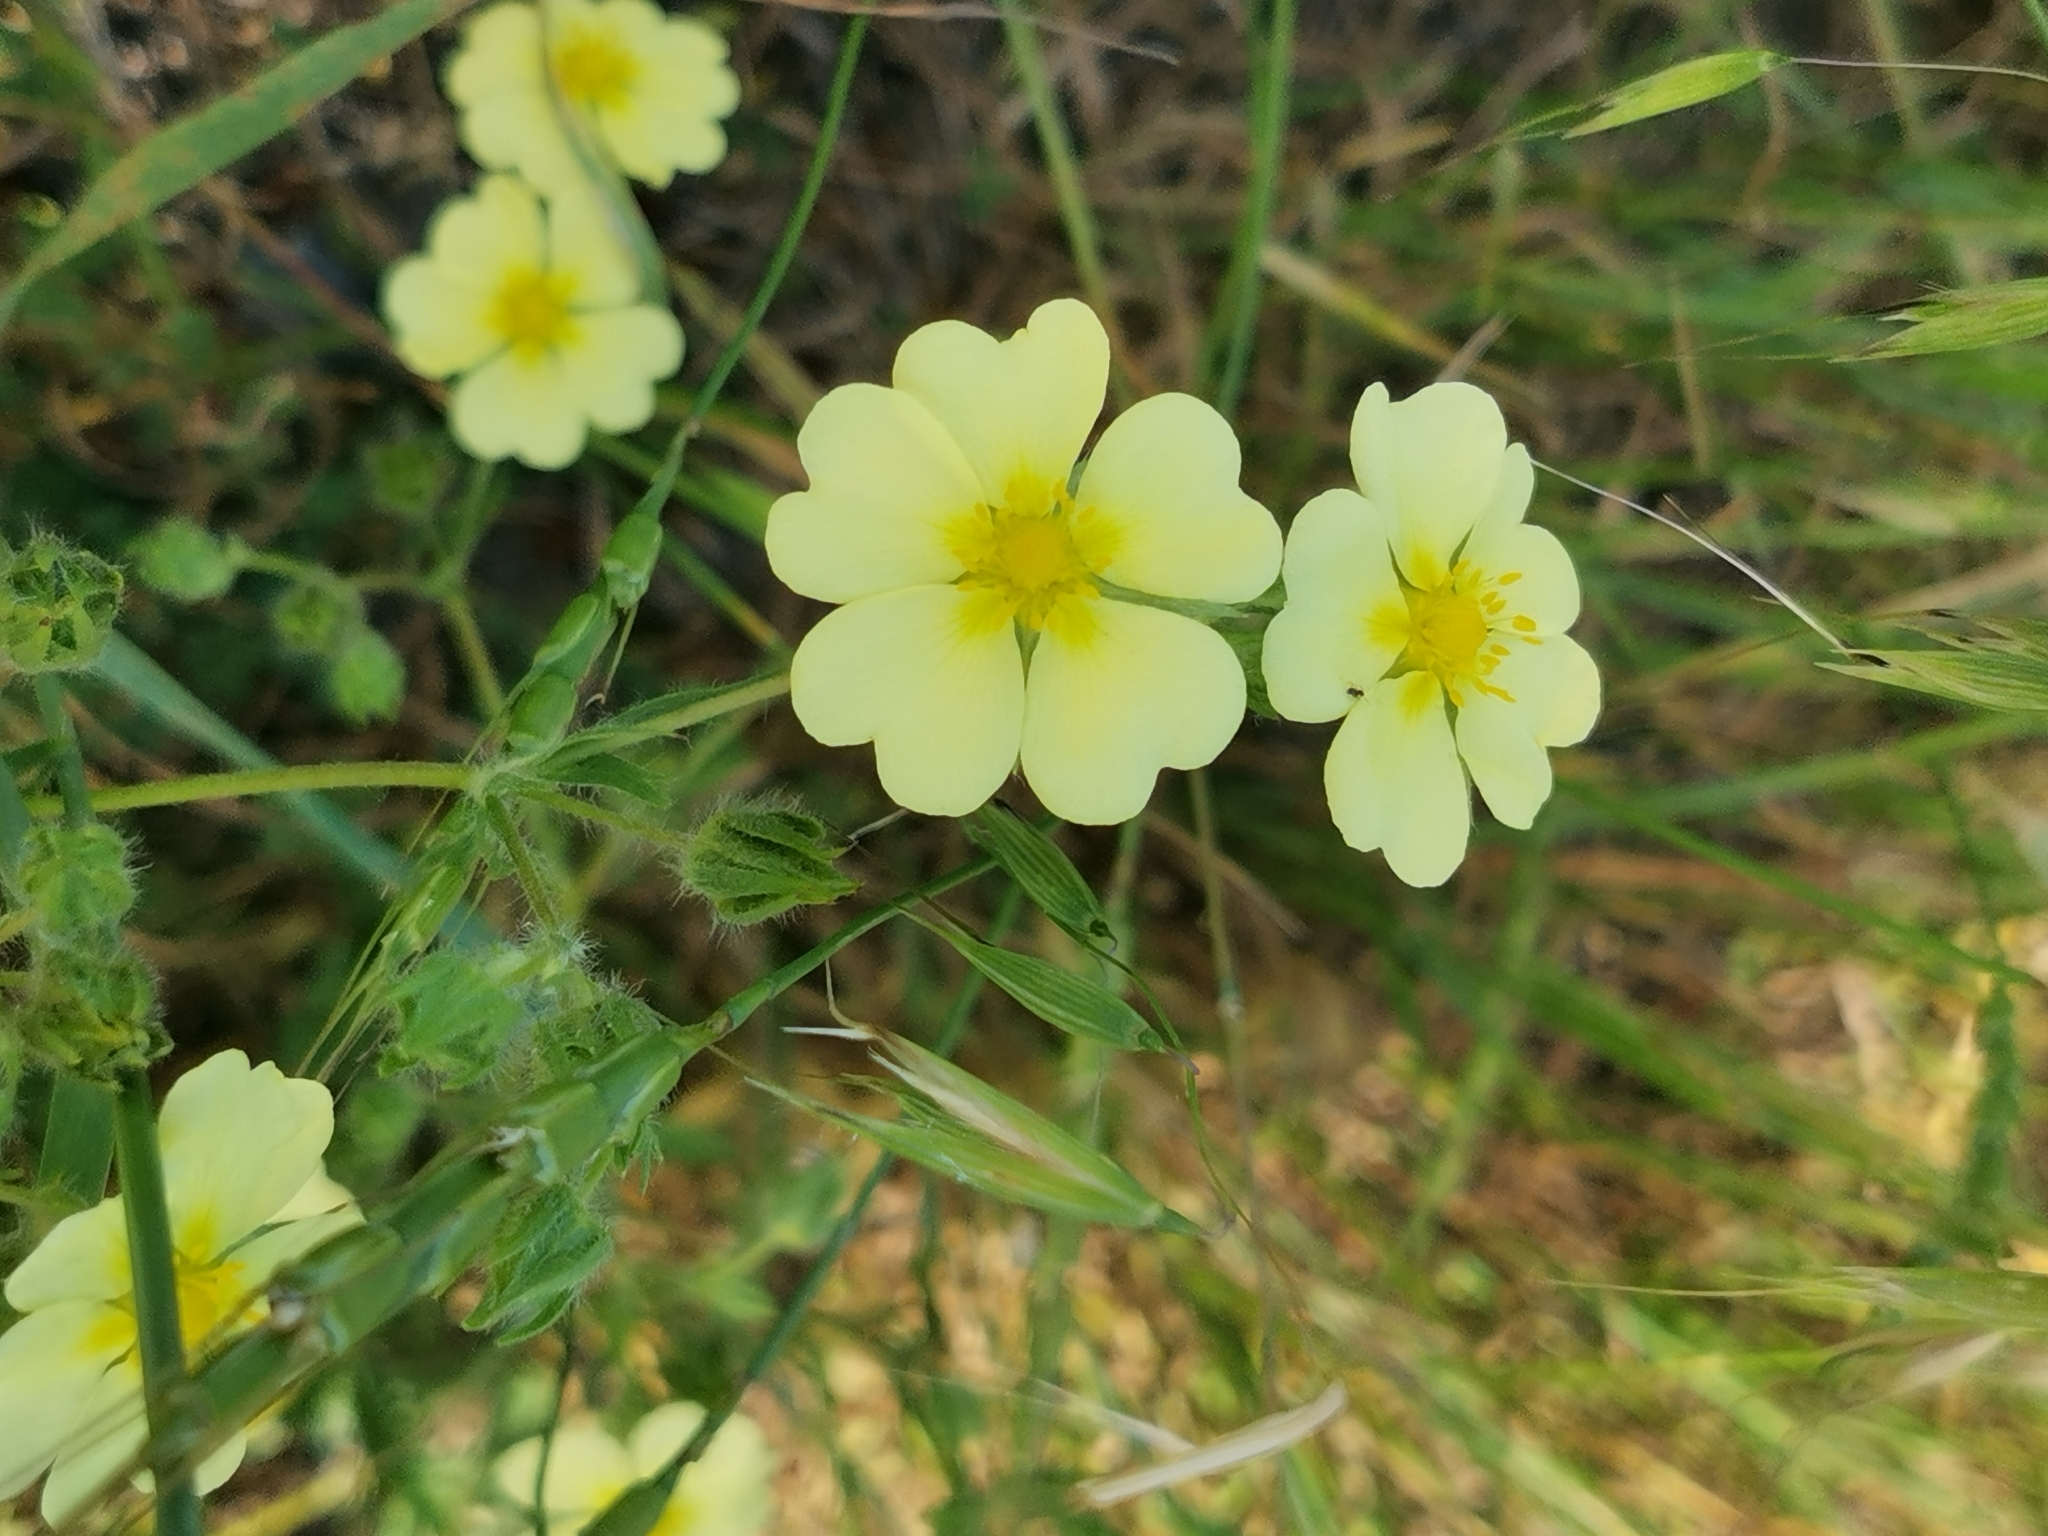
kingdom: Plantae
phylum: Tracheophyta
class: Magnoliopsida
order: Rosales
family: Rosaceae
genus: Potentilla
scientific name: Potentilla recta
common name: Sulphur cinquefoil
